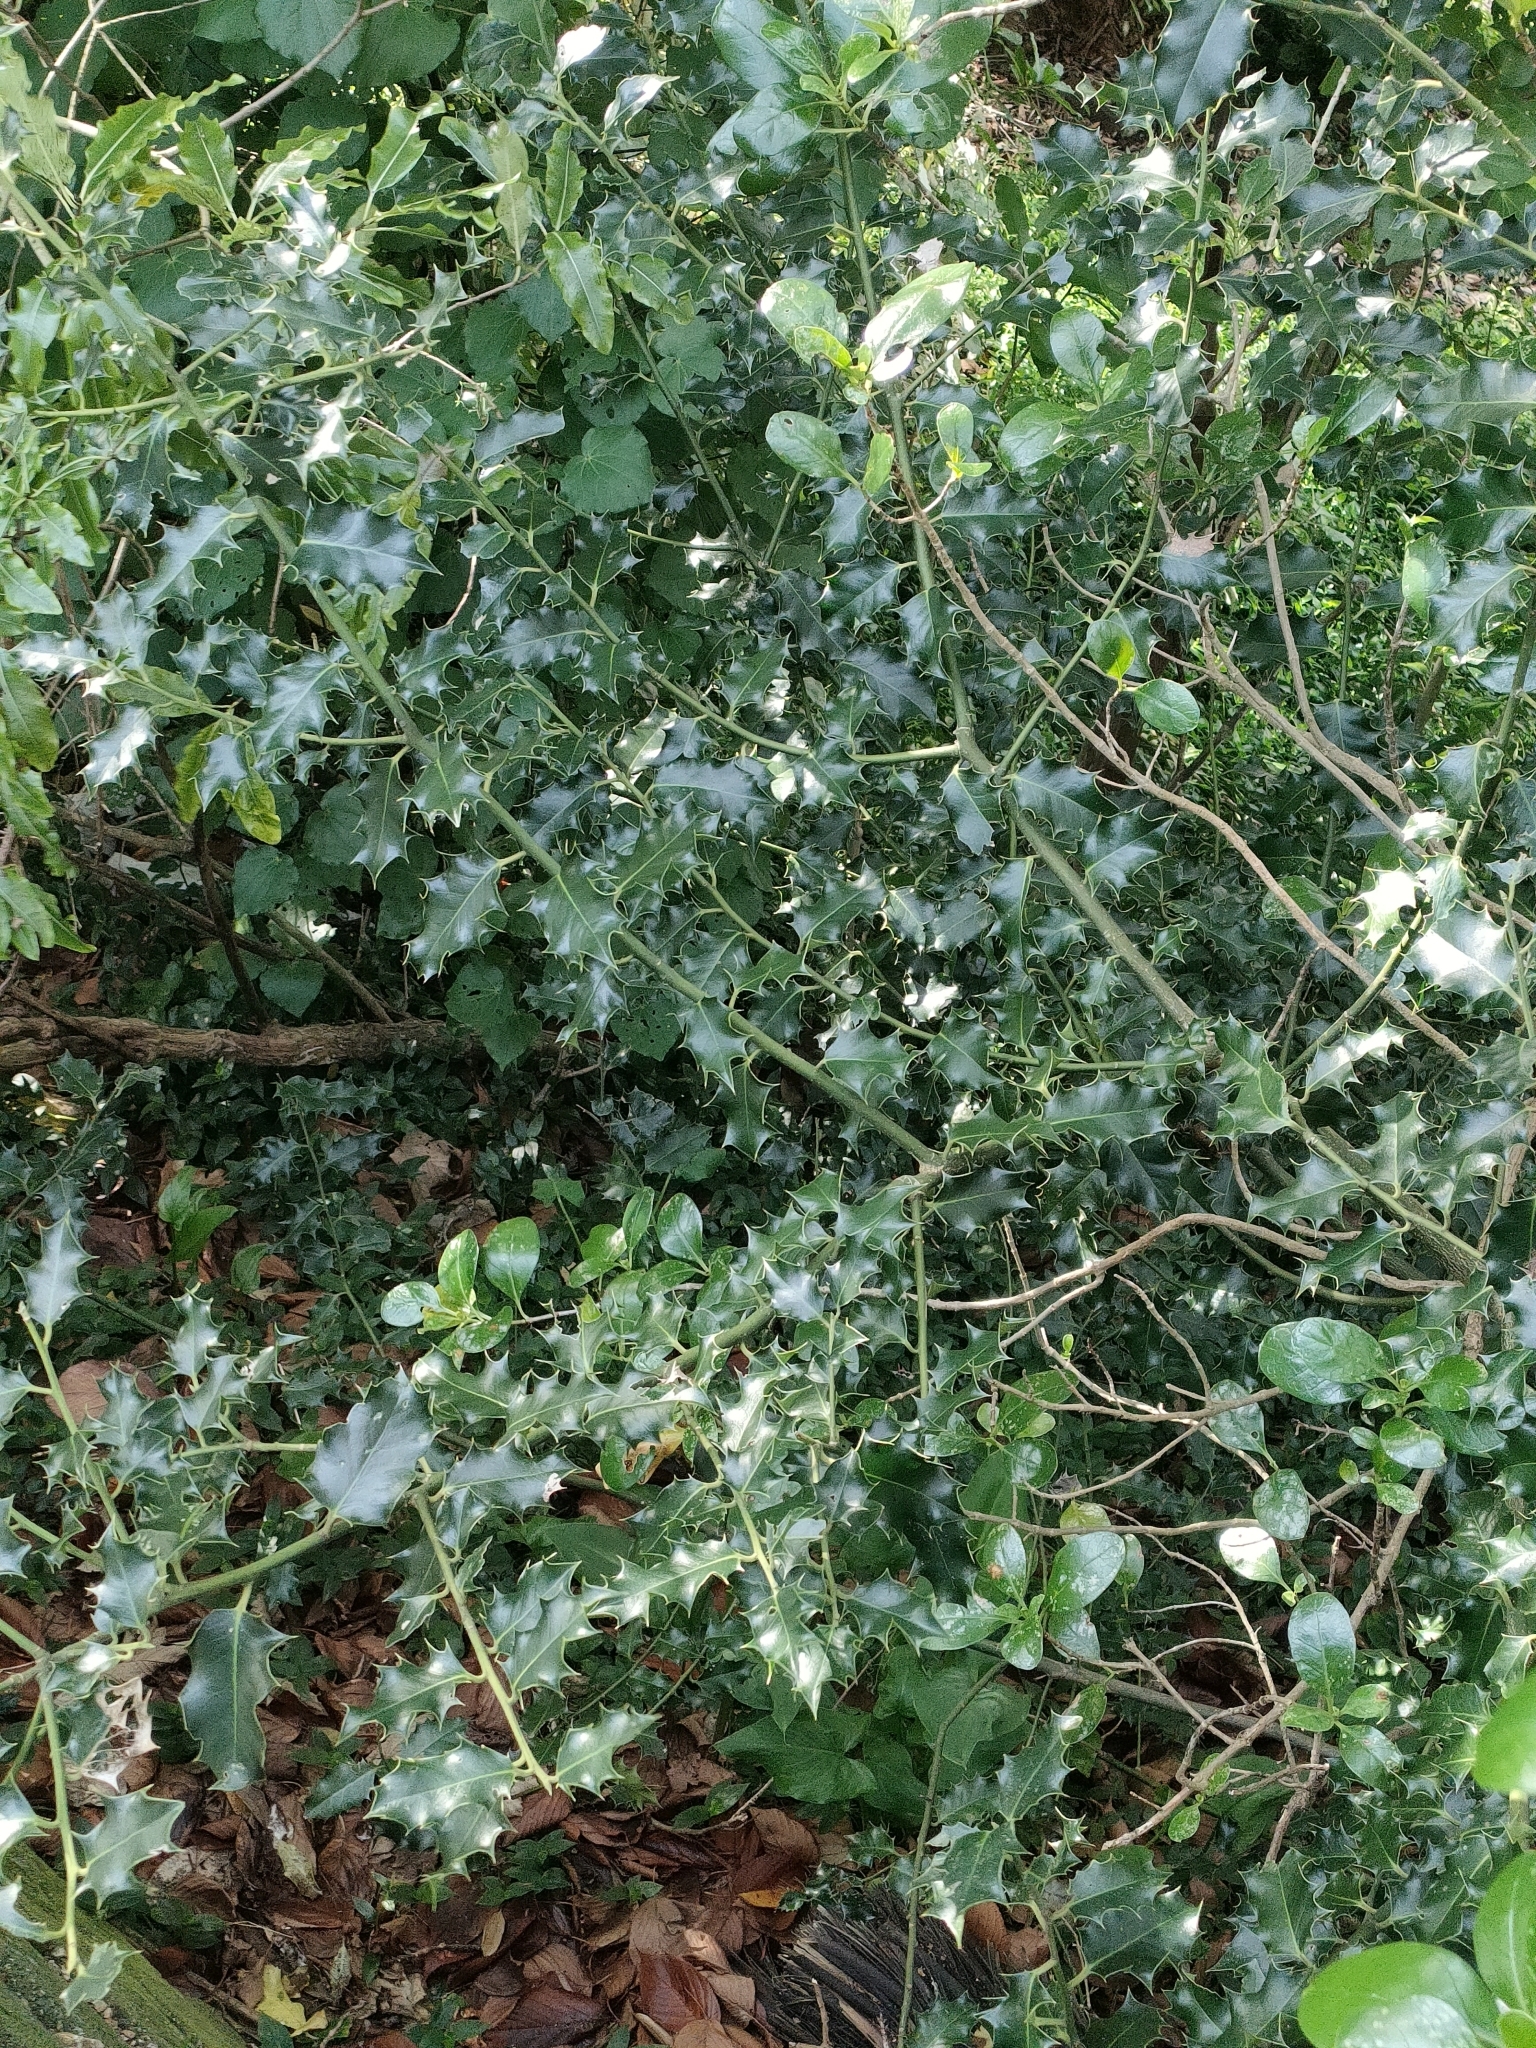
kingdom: Plantae
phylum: Tracheophyta
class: Magnoliopsida
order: Aquifoliales
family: Aquifoliaceae
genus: Ilex
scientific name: Ilex aquifolium
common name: English holly
